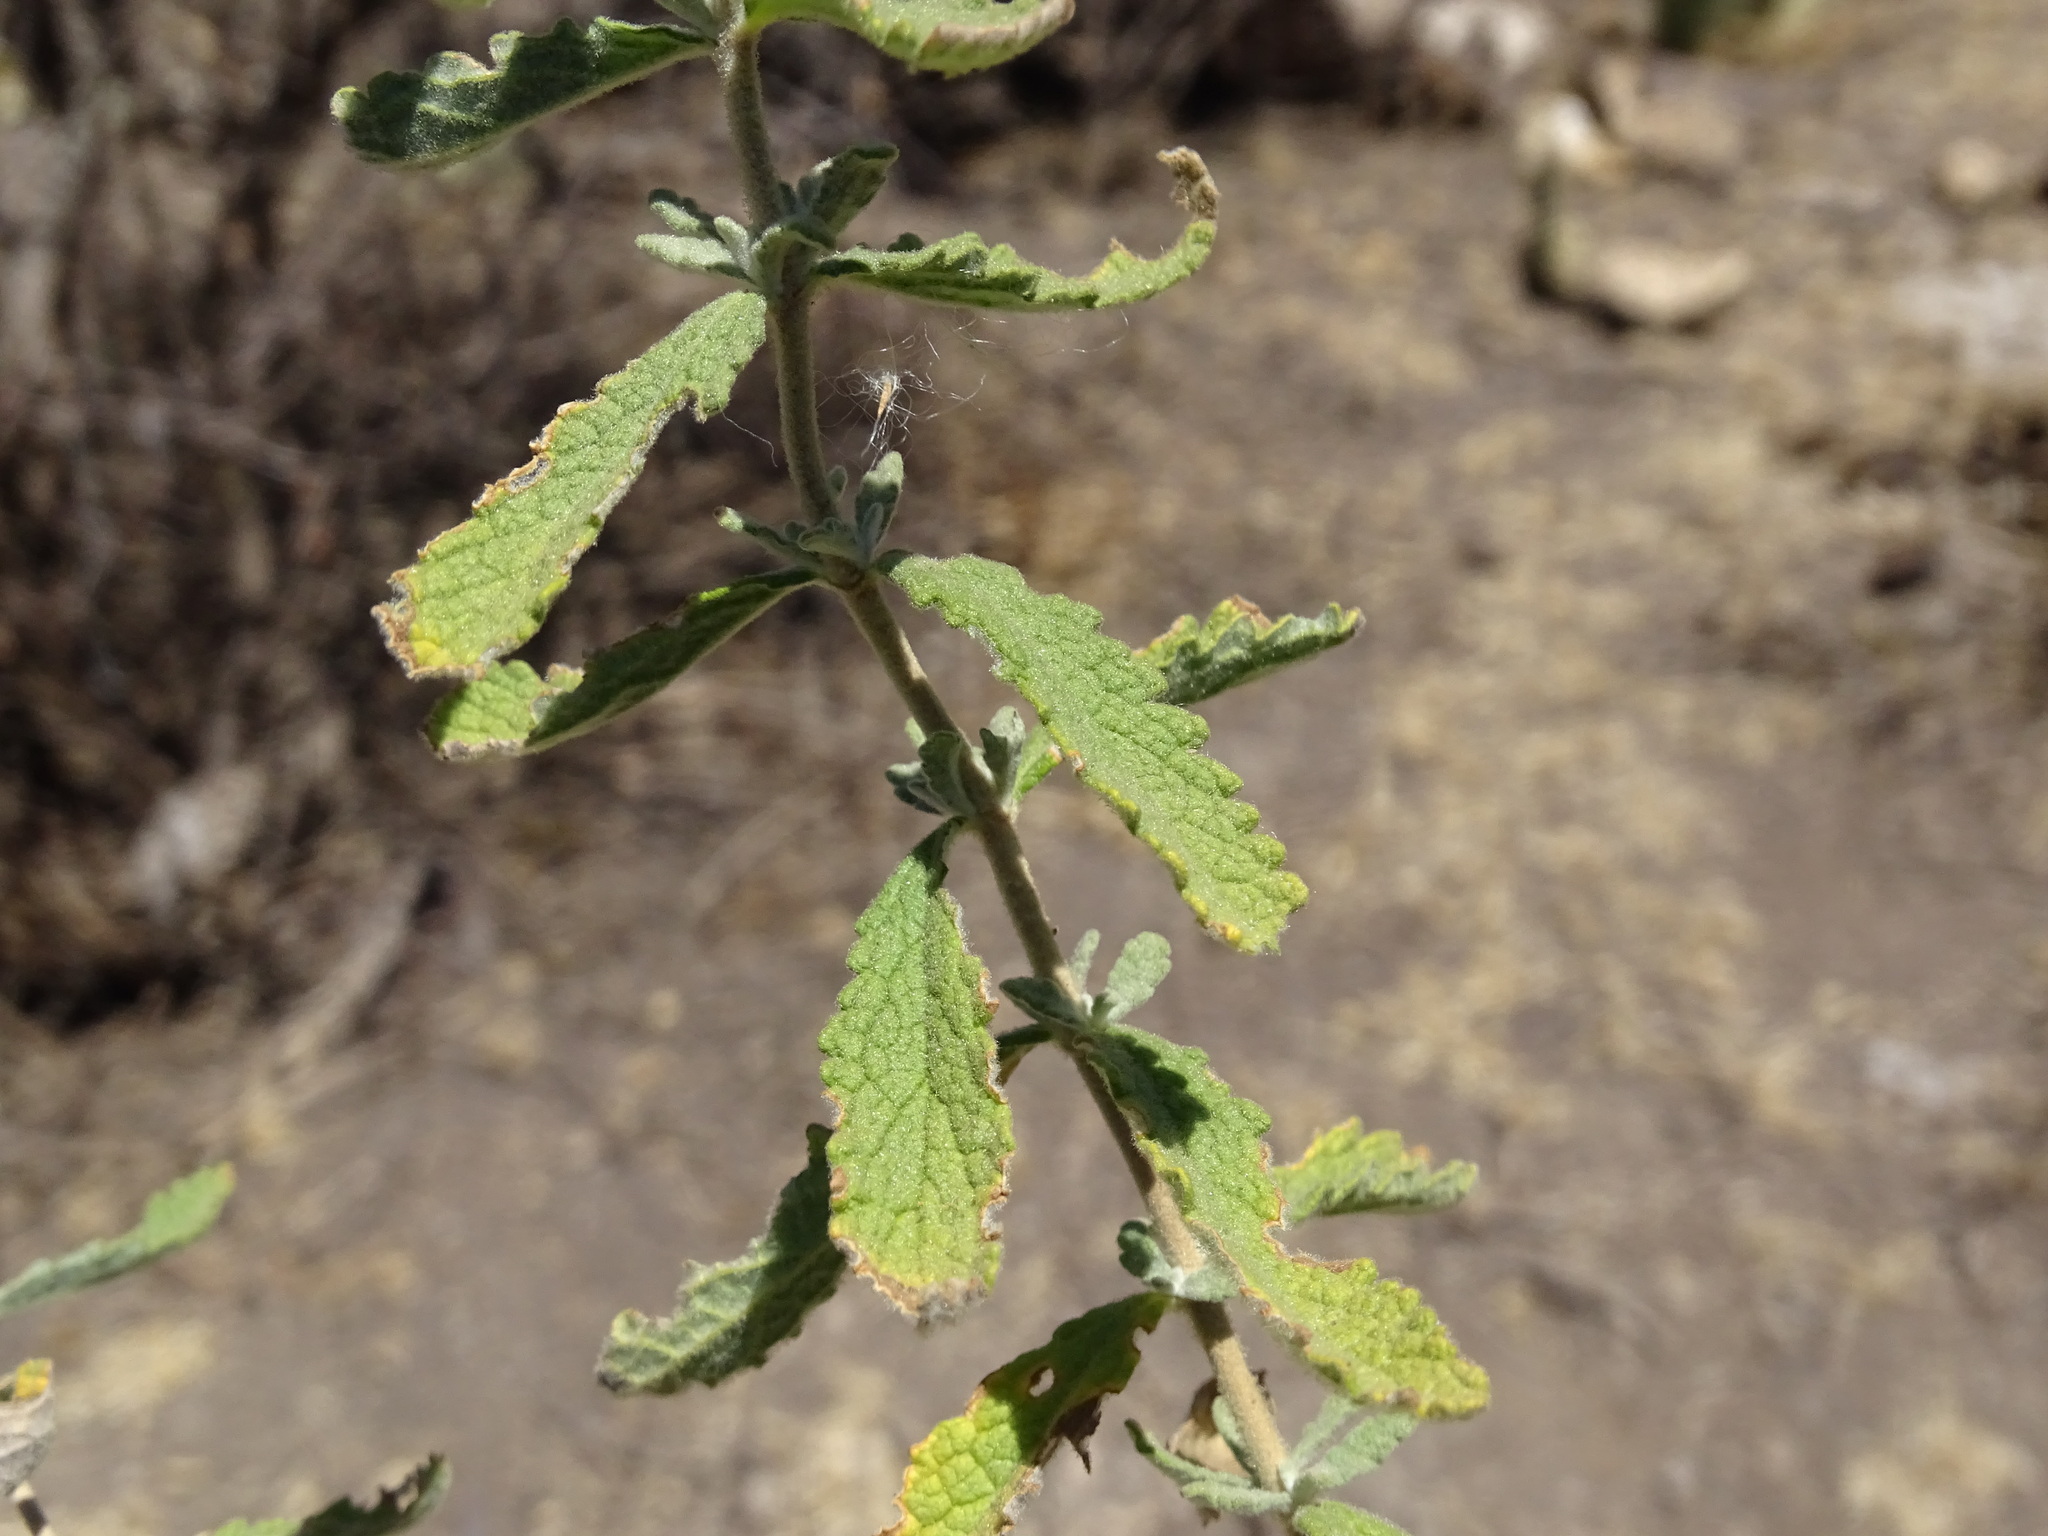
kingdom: Plantae
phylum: Tracheophyta
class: Magnoliopsida
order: Lamiales
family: Scrophulariaceae
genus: Buddleja
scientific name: Buddleja scordioides
